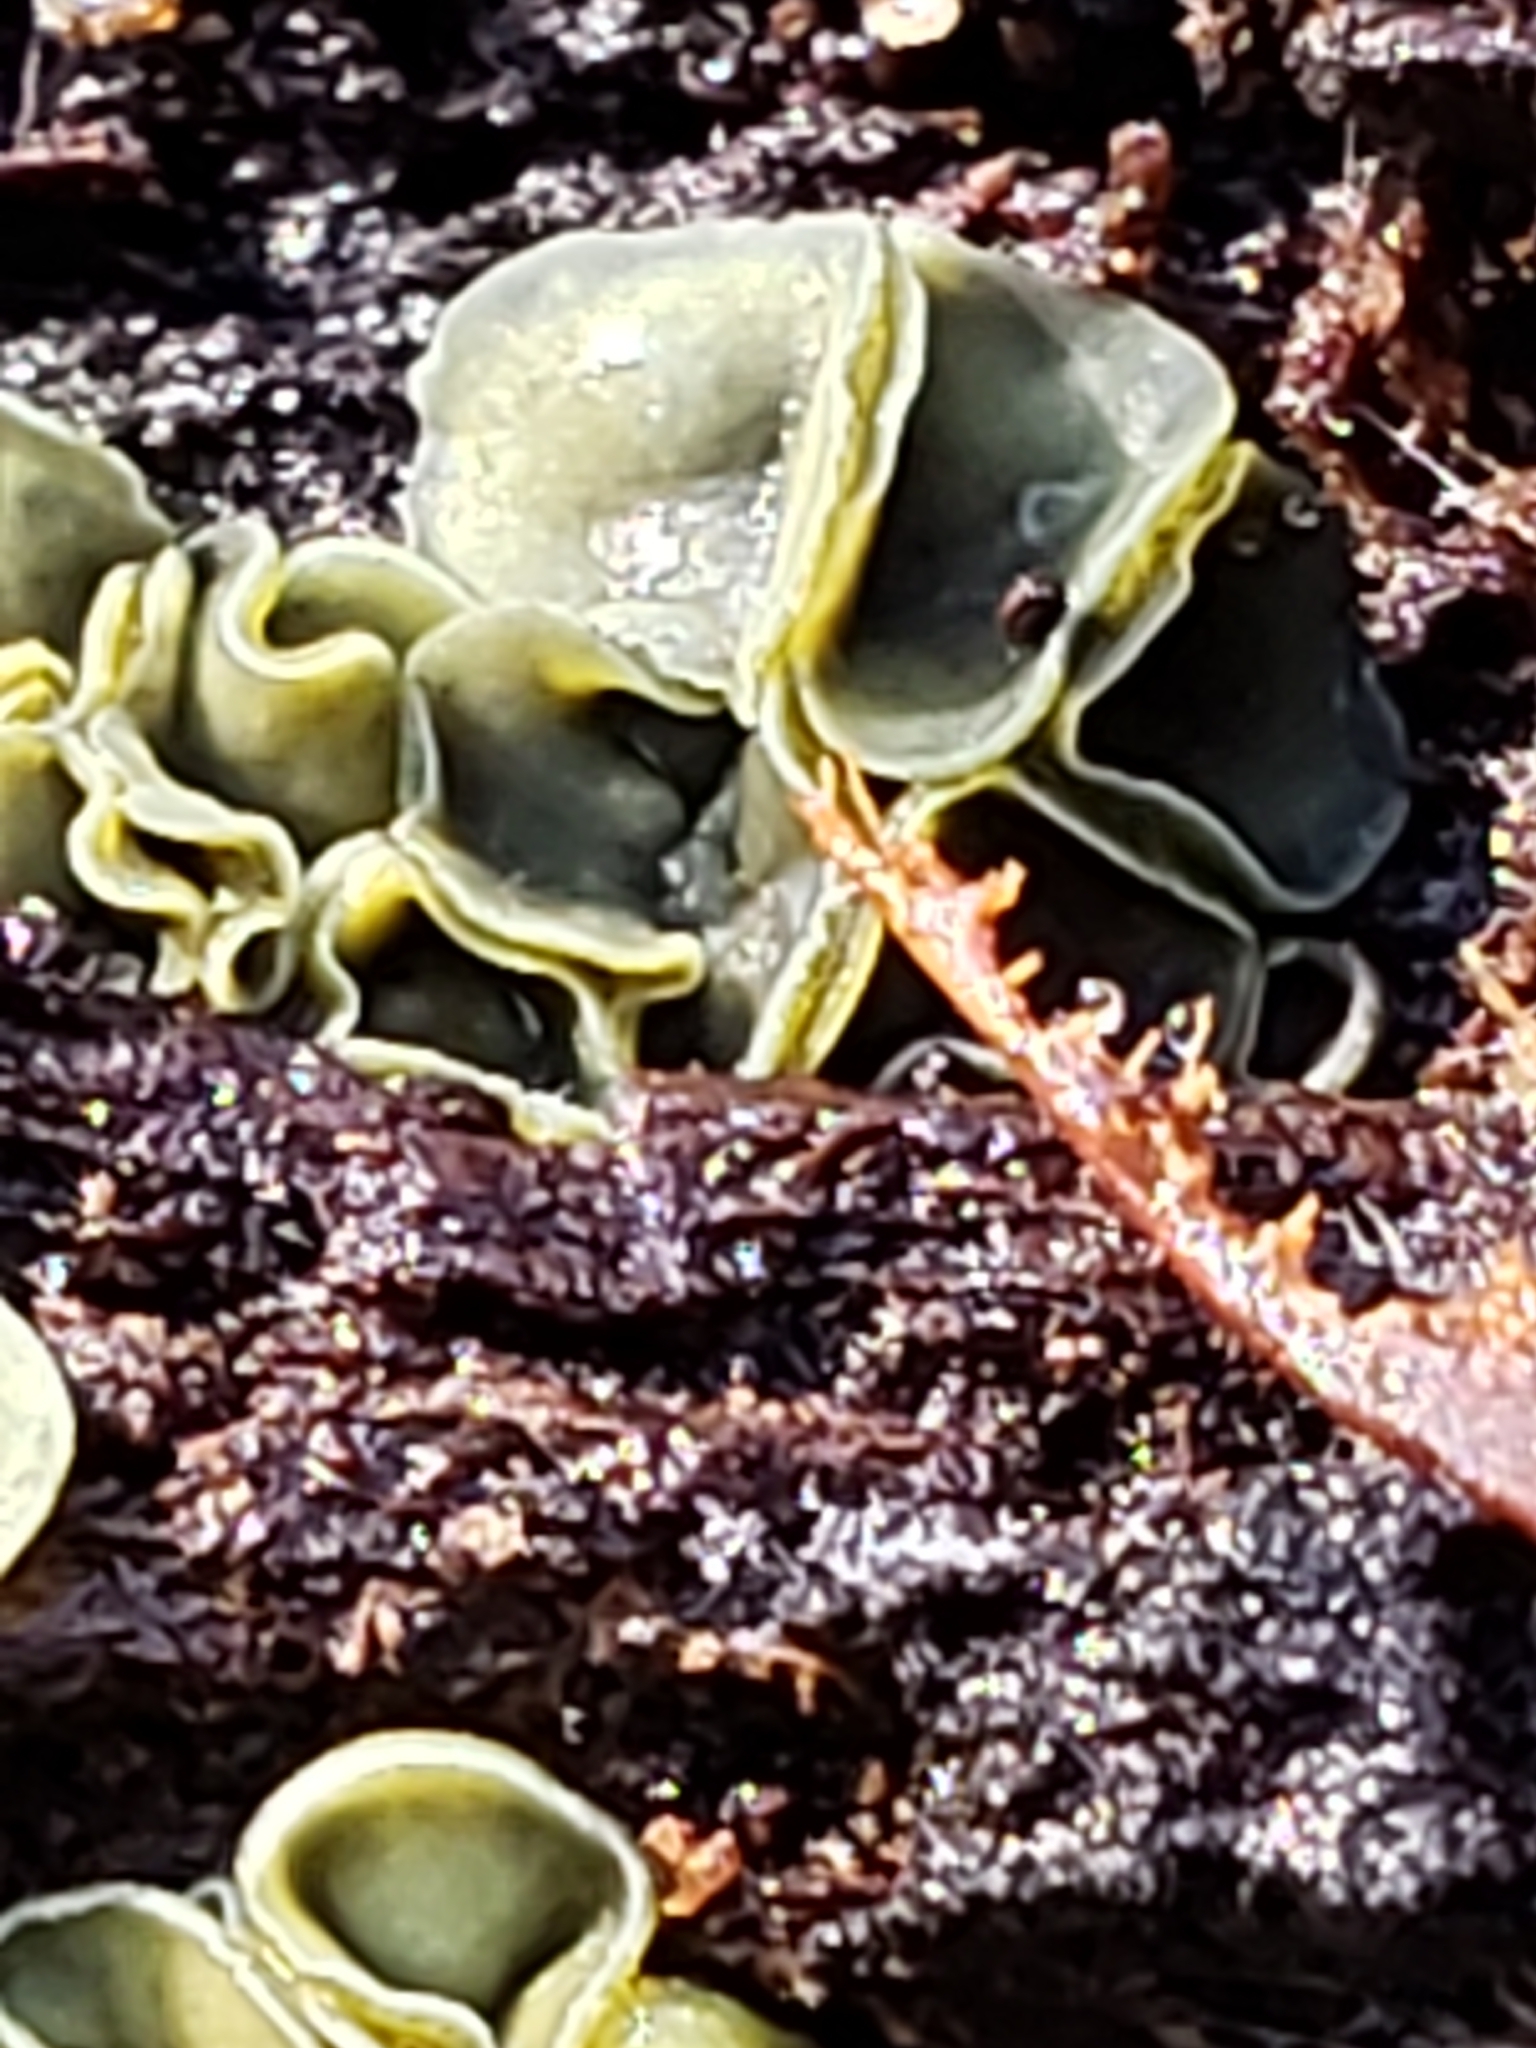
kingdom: Fungi
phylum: Ascomycota
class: Leotiomycetes
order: Helotiales
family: Chlorospleniaceae
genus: Chlorosplenium
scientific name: Chlorosplenium chlora
